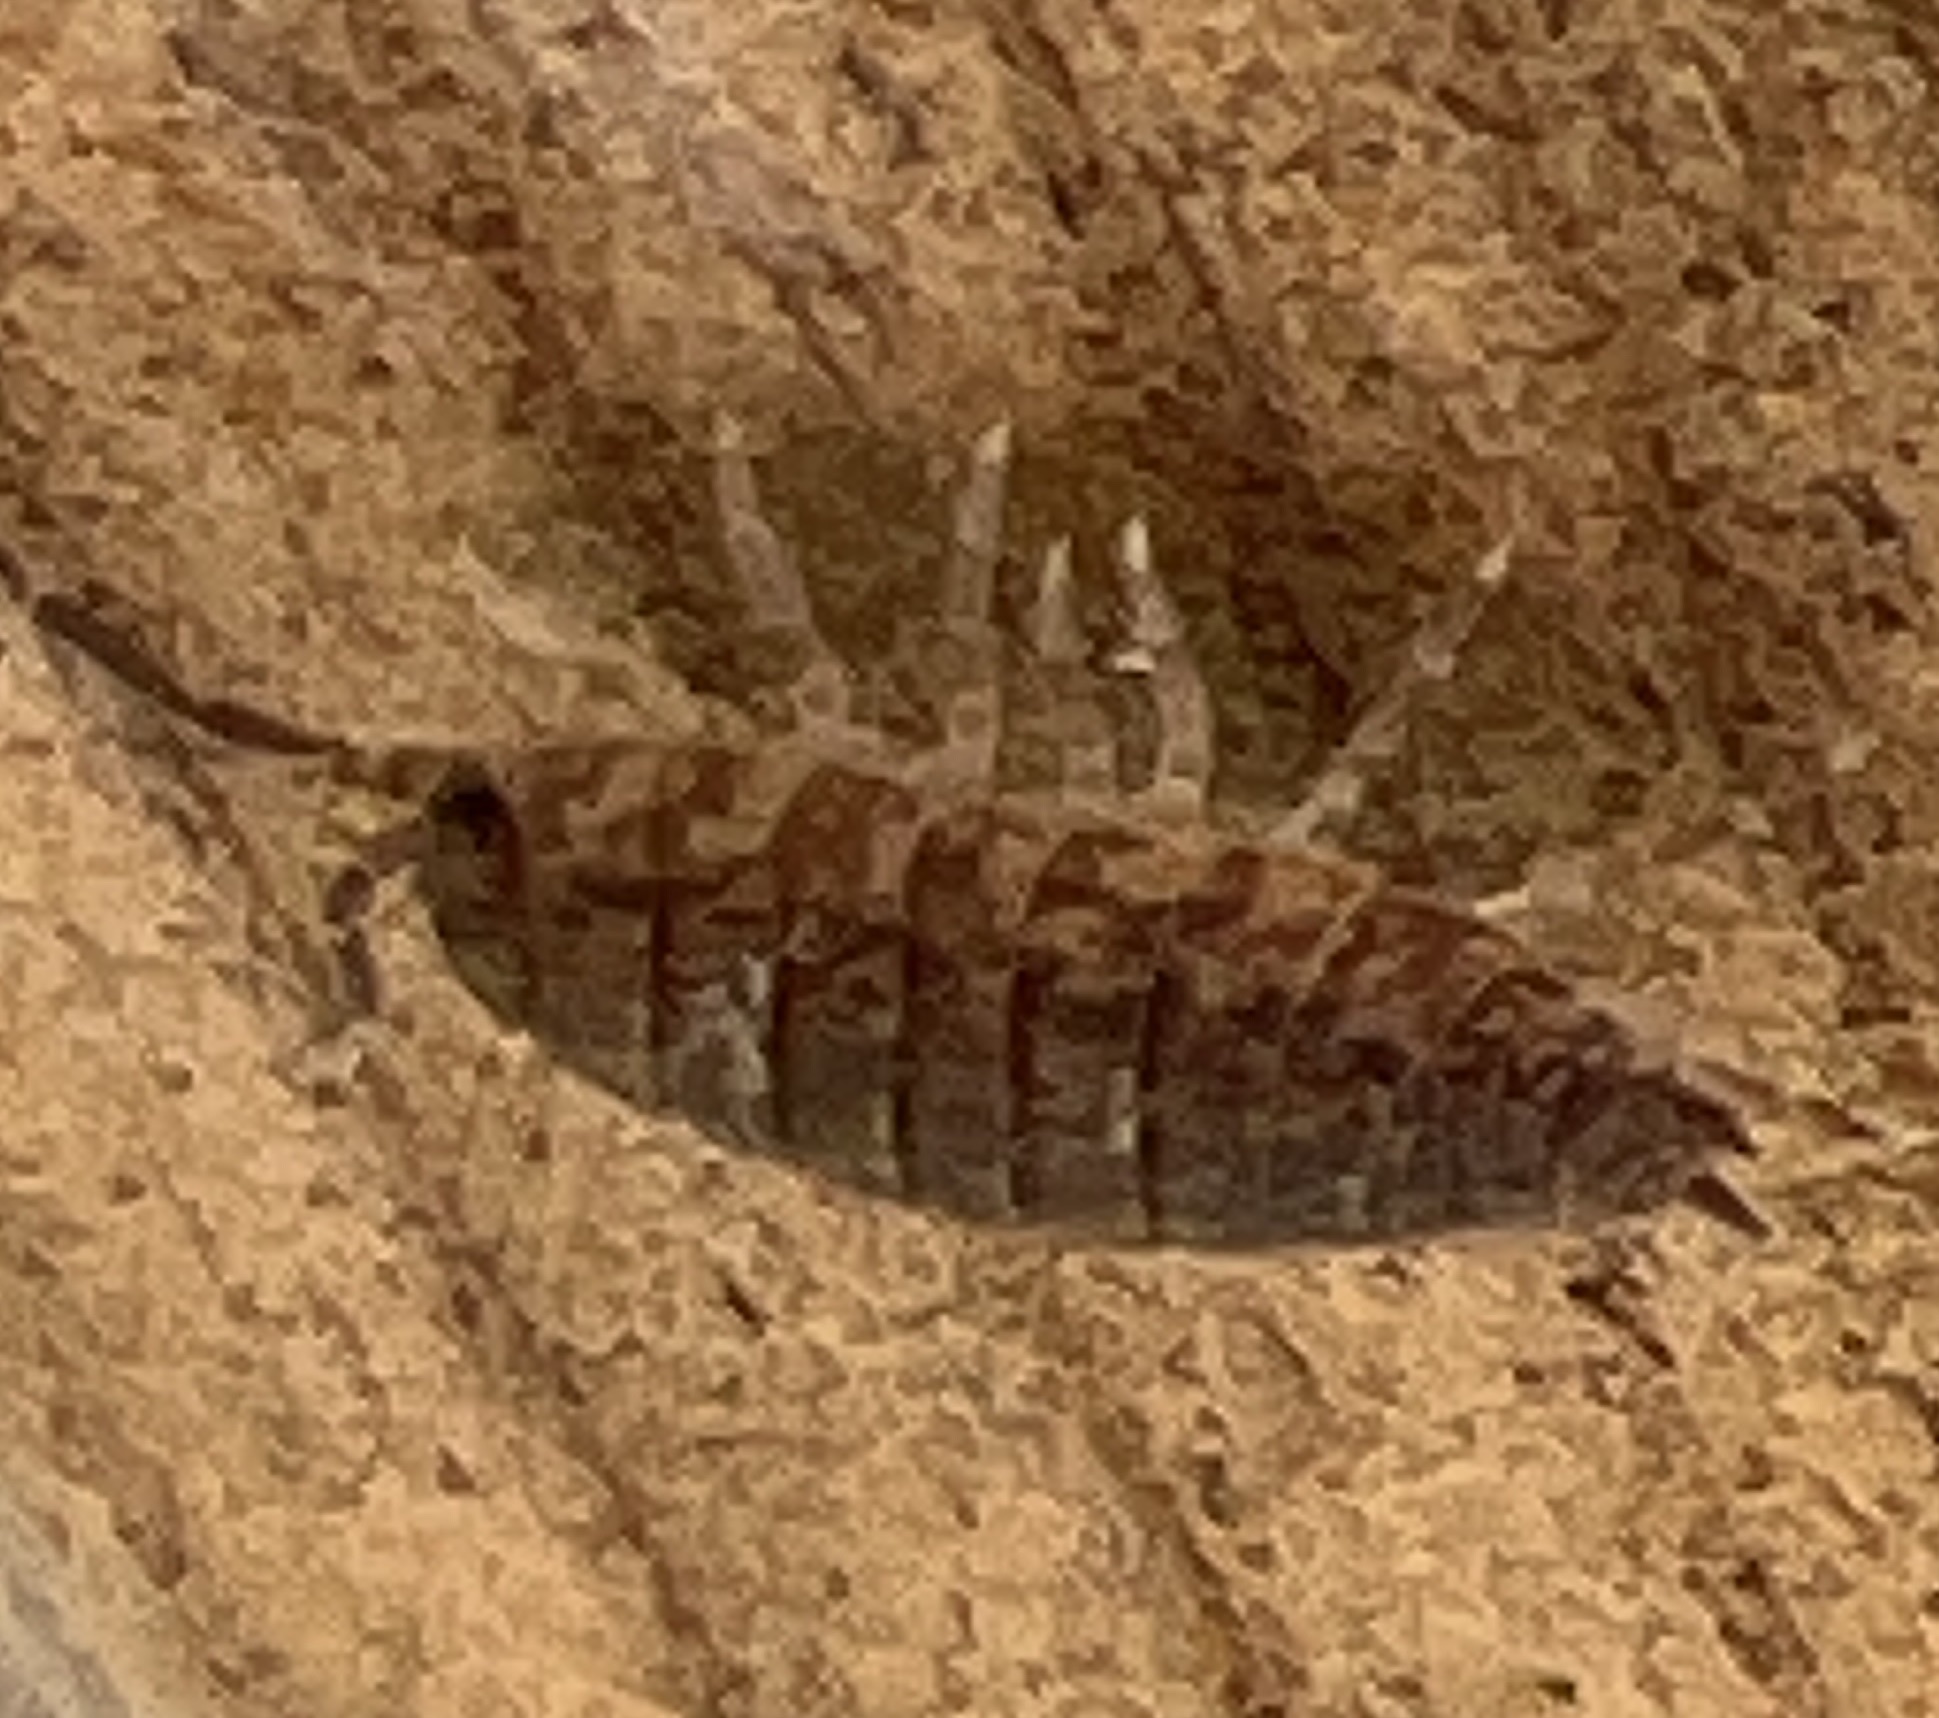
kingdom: Animalia
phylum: Arthropoda
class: Malacostraca
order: Isopoda
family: Porcellionidae
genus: Porcellio
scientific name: Porcellio scaber
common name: Common rough woodlouse
